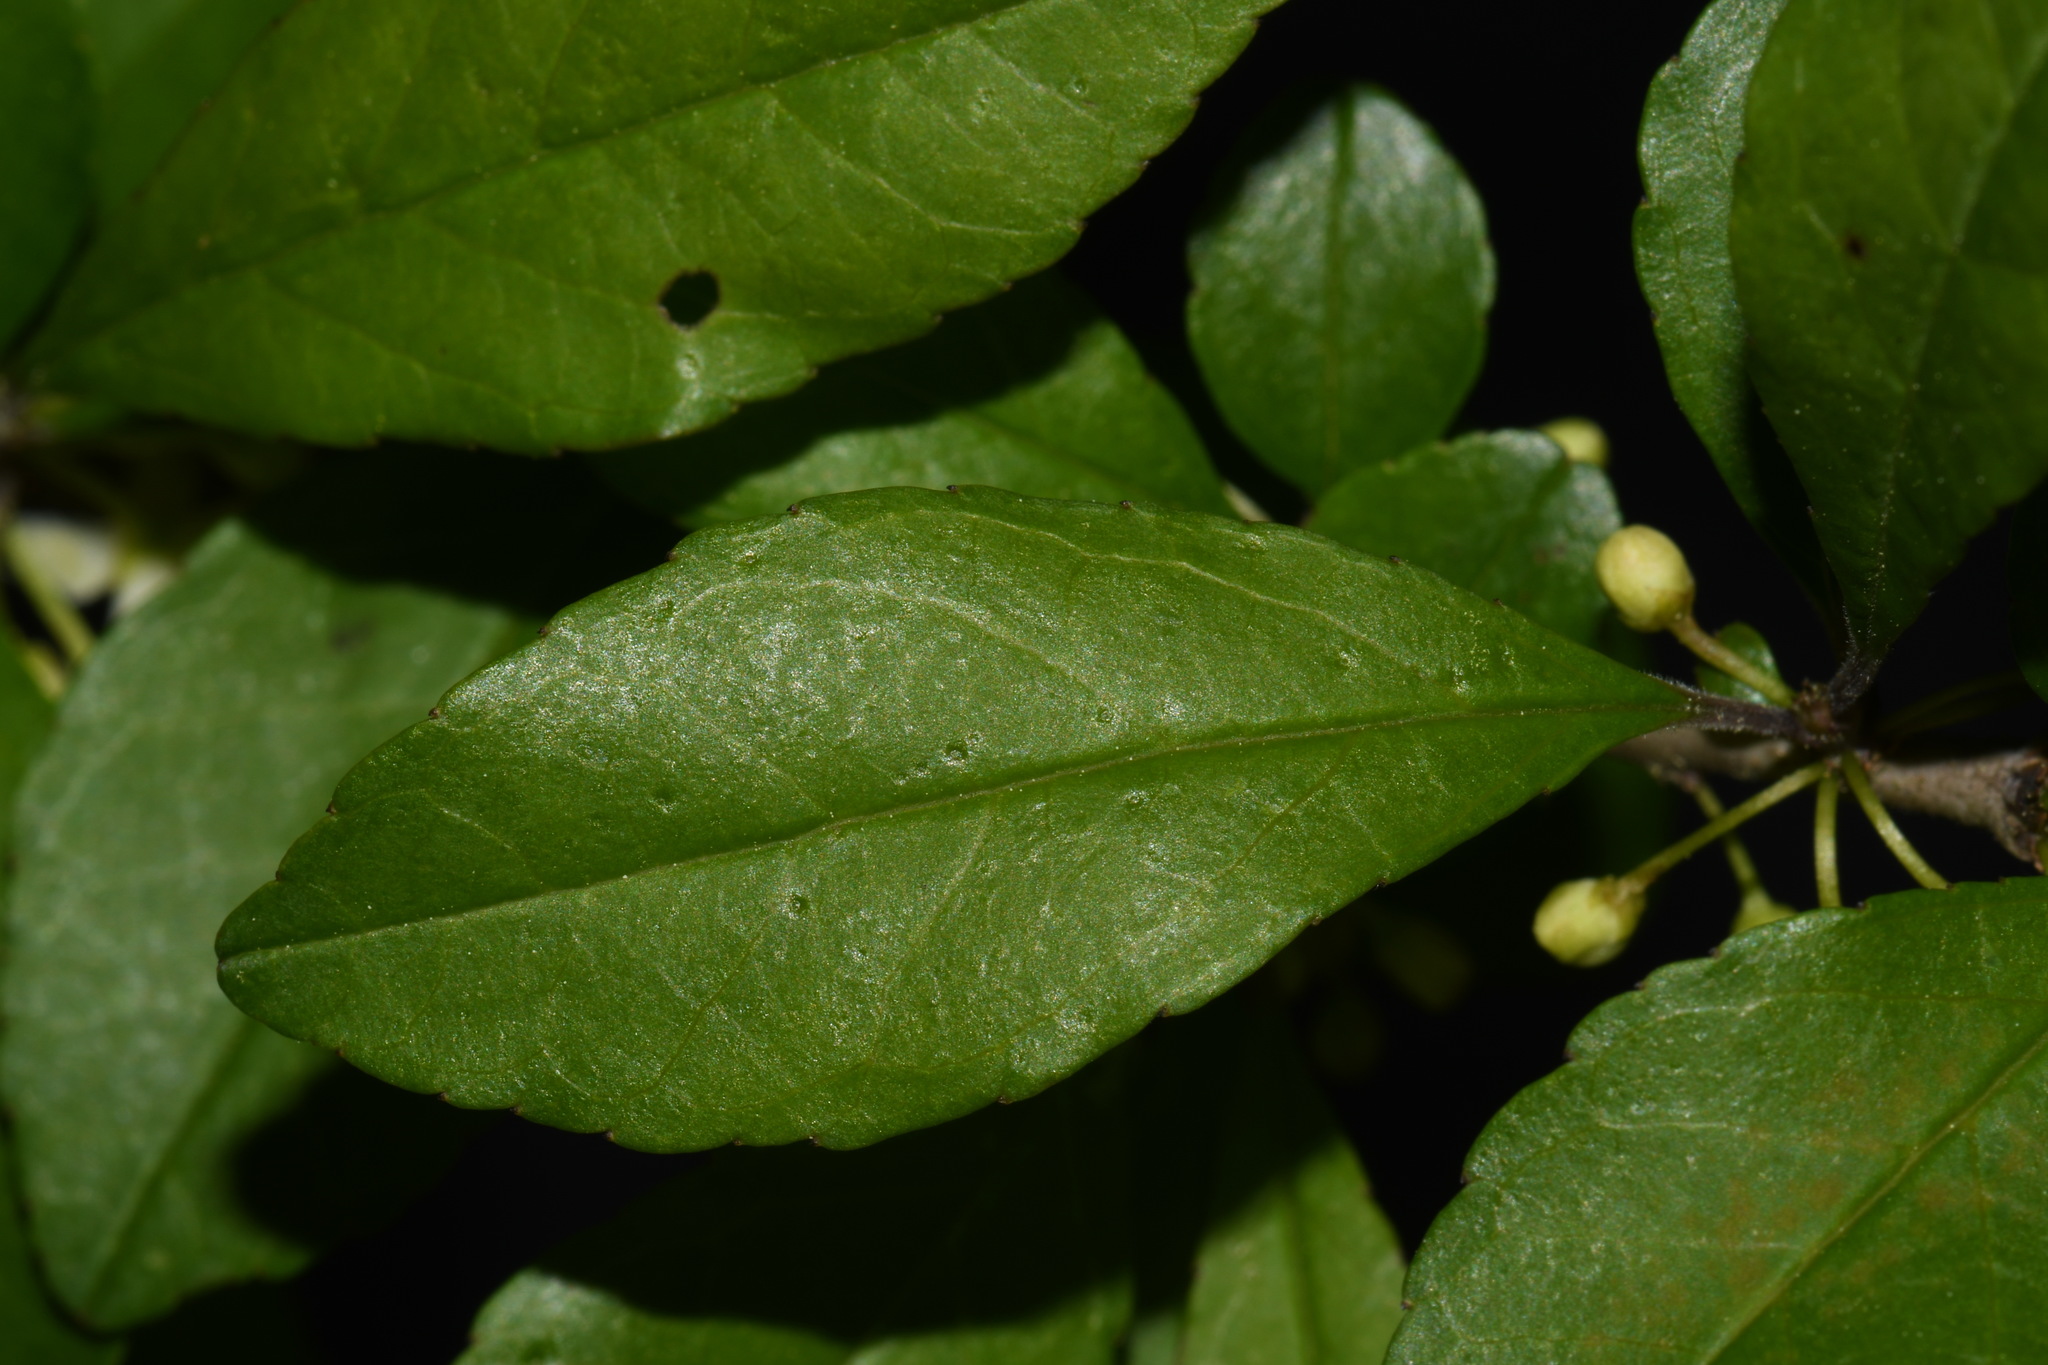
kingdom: Plantae
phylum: Tracheophyta
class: Magnoliopsida
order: Aquifoliales
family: Aquifoliaceae
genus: Ilex
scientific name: Ilex decidua
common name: Possum-haw
